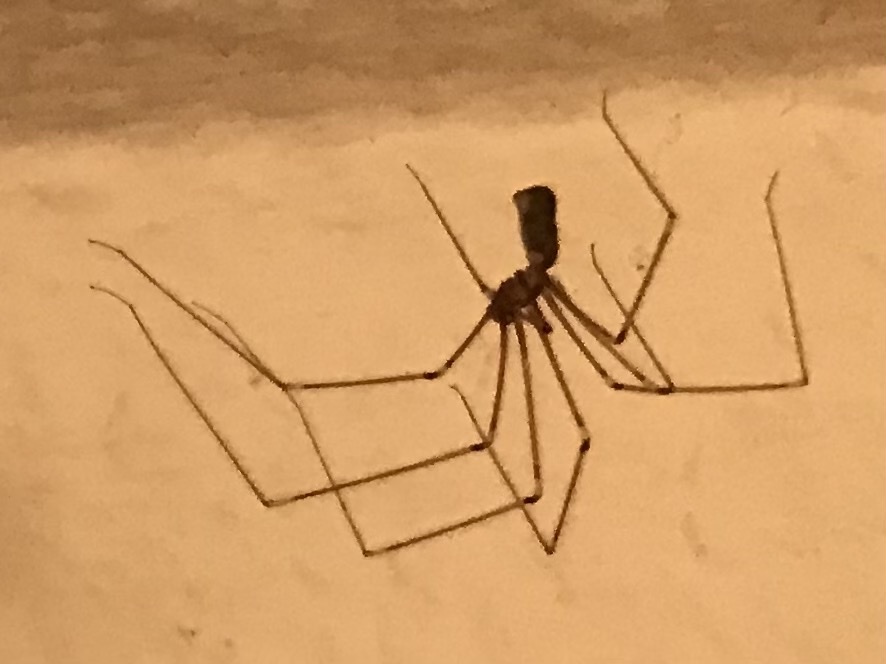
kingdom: Animalia
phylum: Arthropoda
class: Arachnida
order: Araneae
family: Pholcidae
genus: Pholcus
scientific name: Pholcus phalangioides
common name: Longbodied cellar spider
